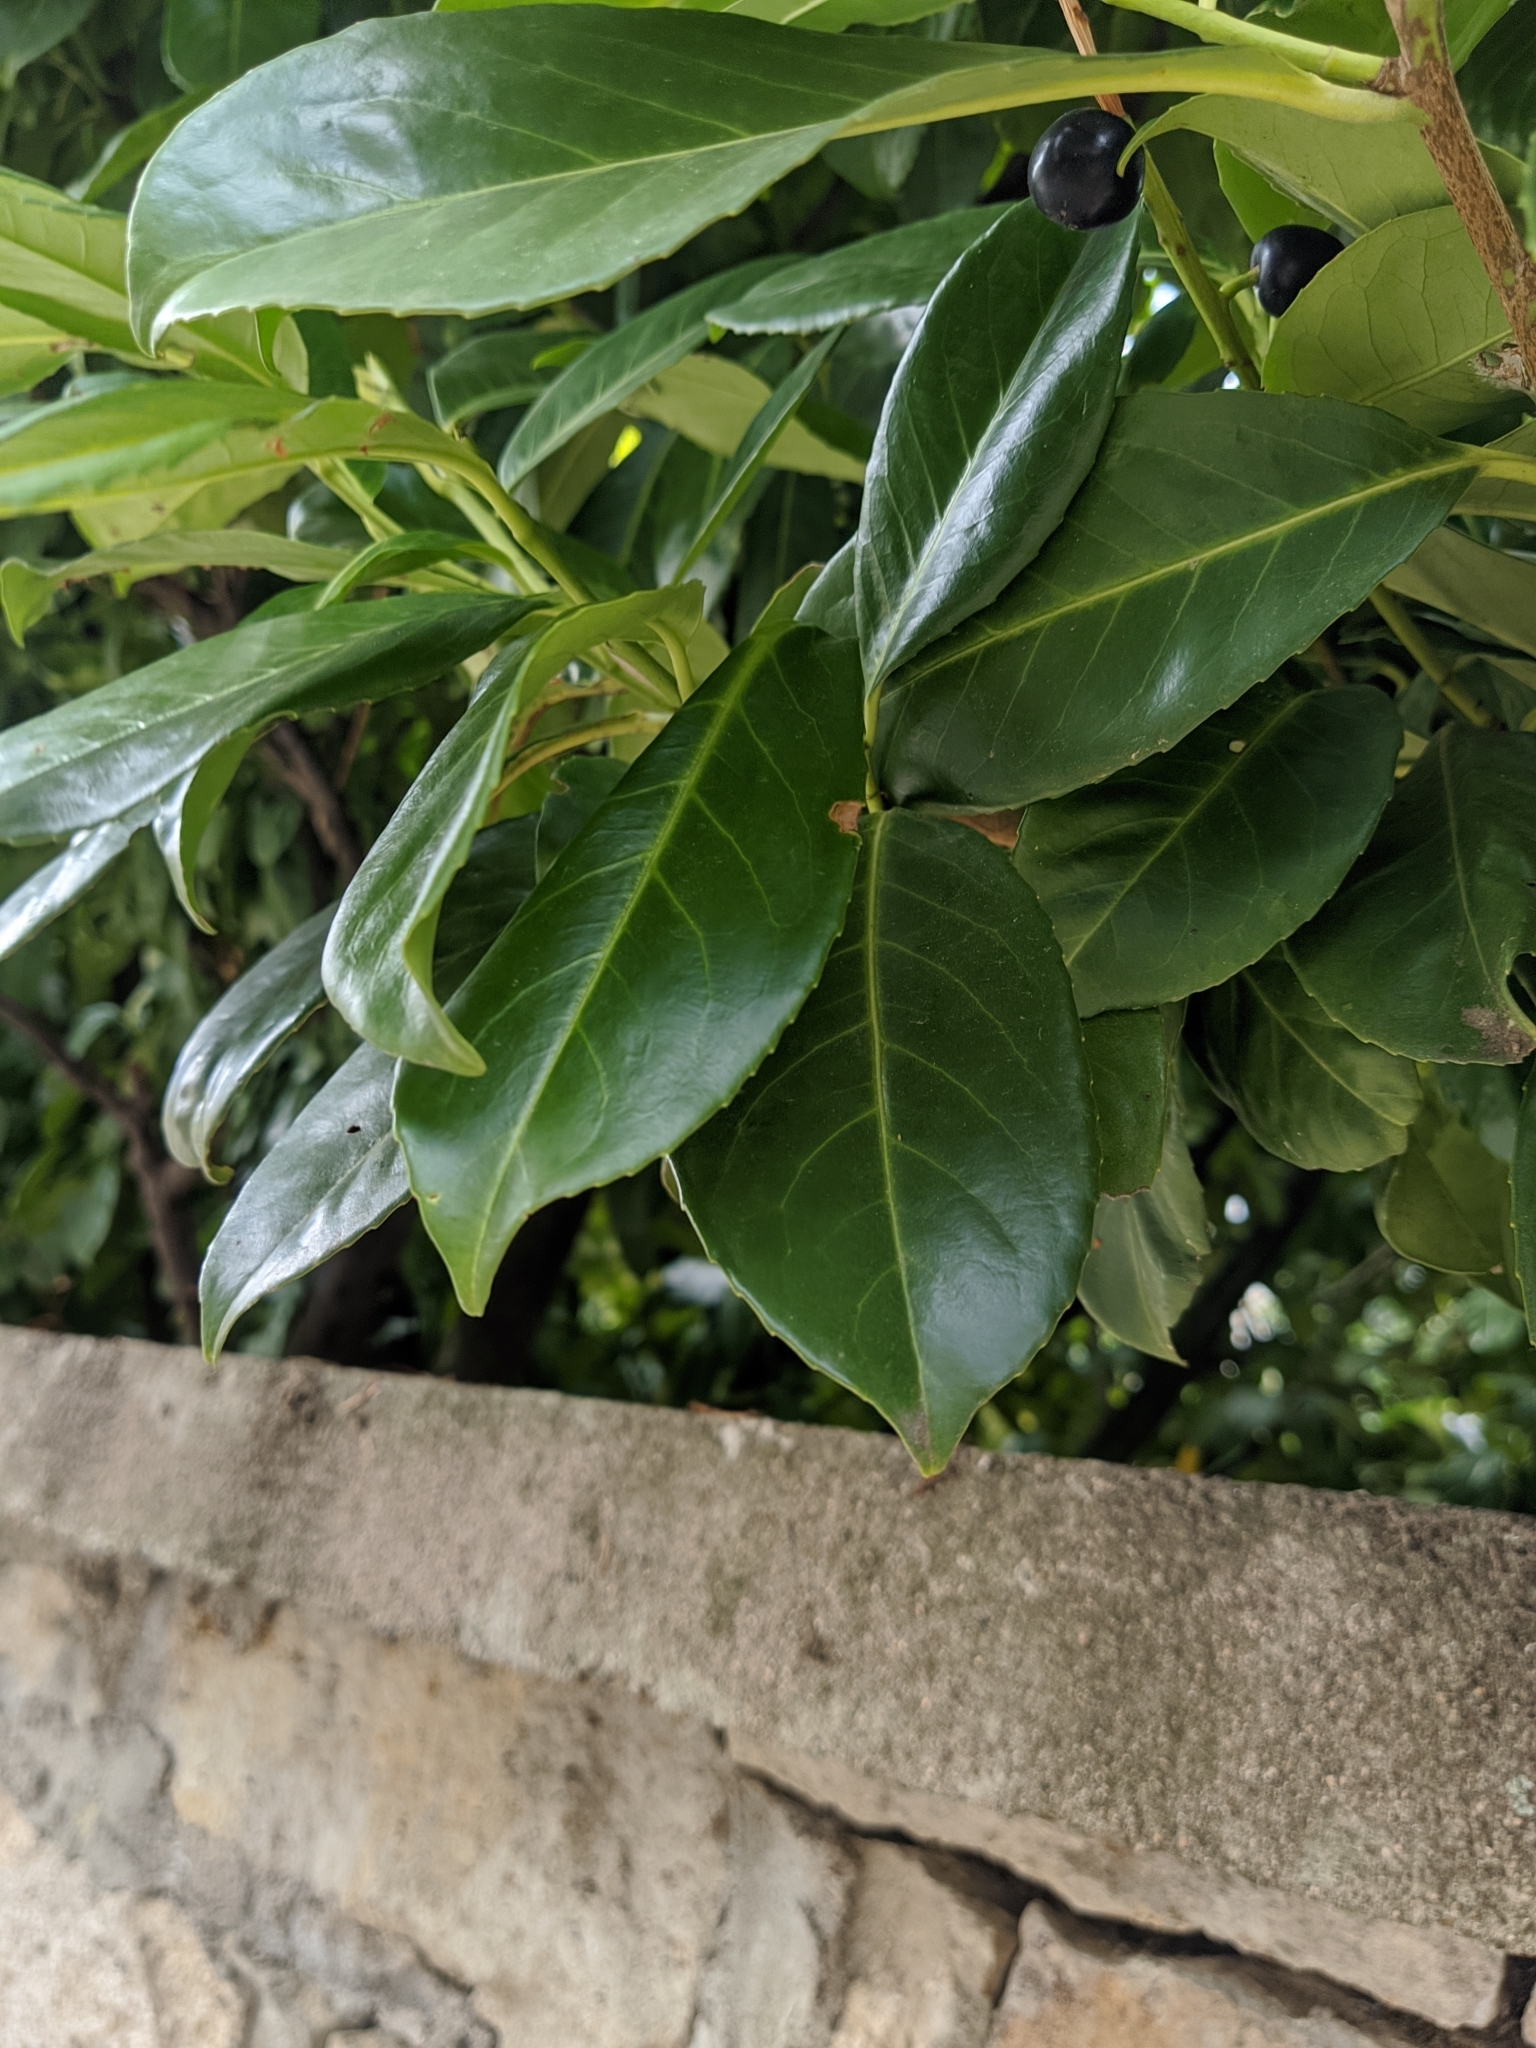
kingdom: Plantae
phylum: Tracheophyta
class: Magnoliopsida
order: Rosales
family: Rosaceae
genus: Prunus
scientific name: Prunus laurocerasus
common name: Cherry laurel
